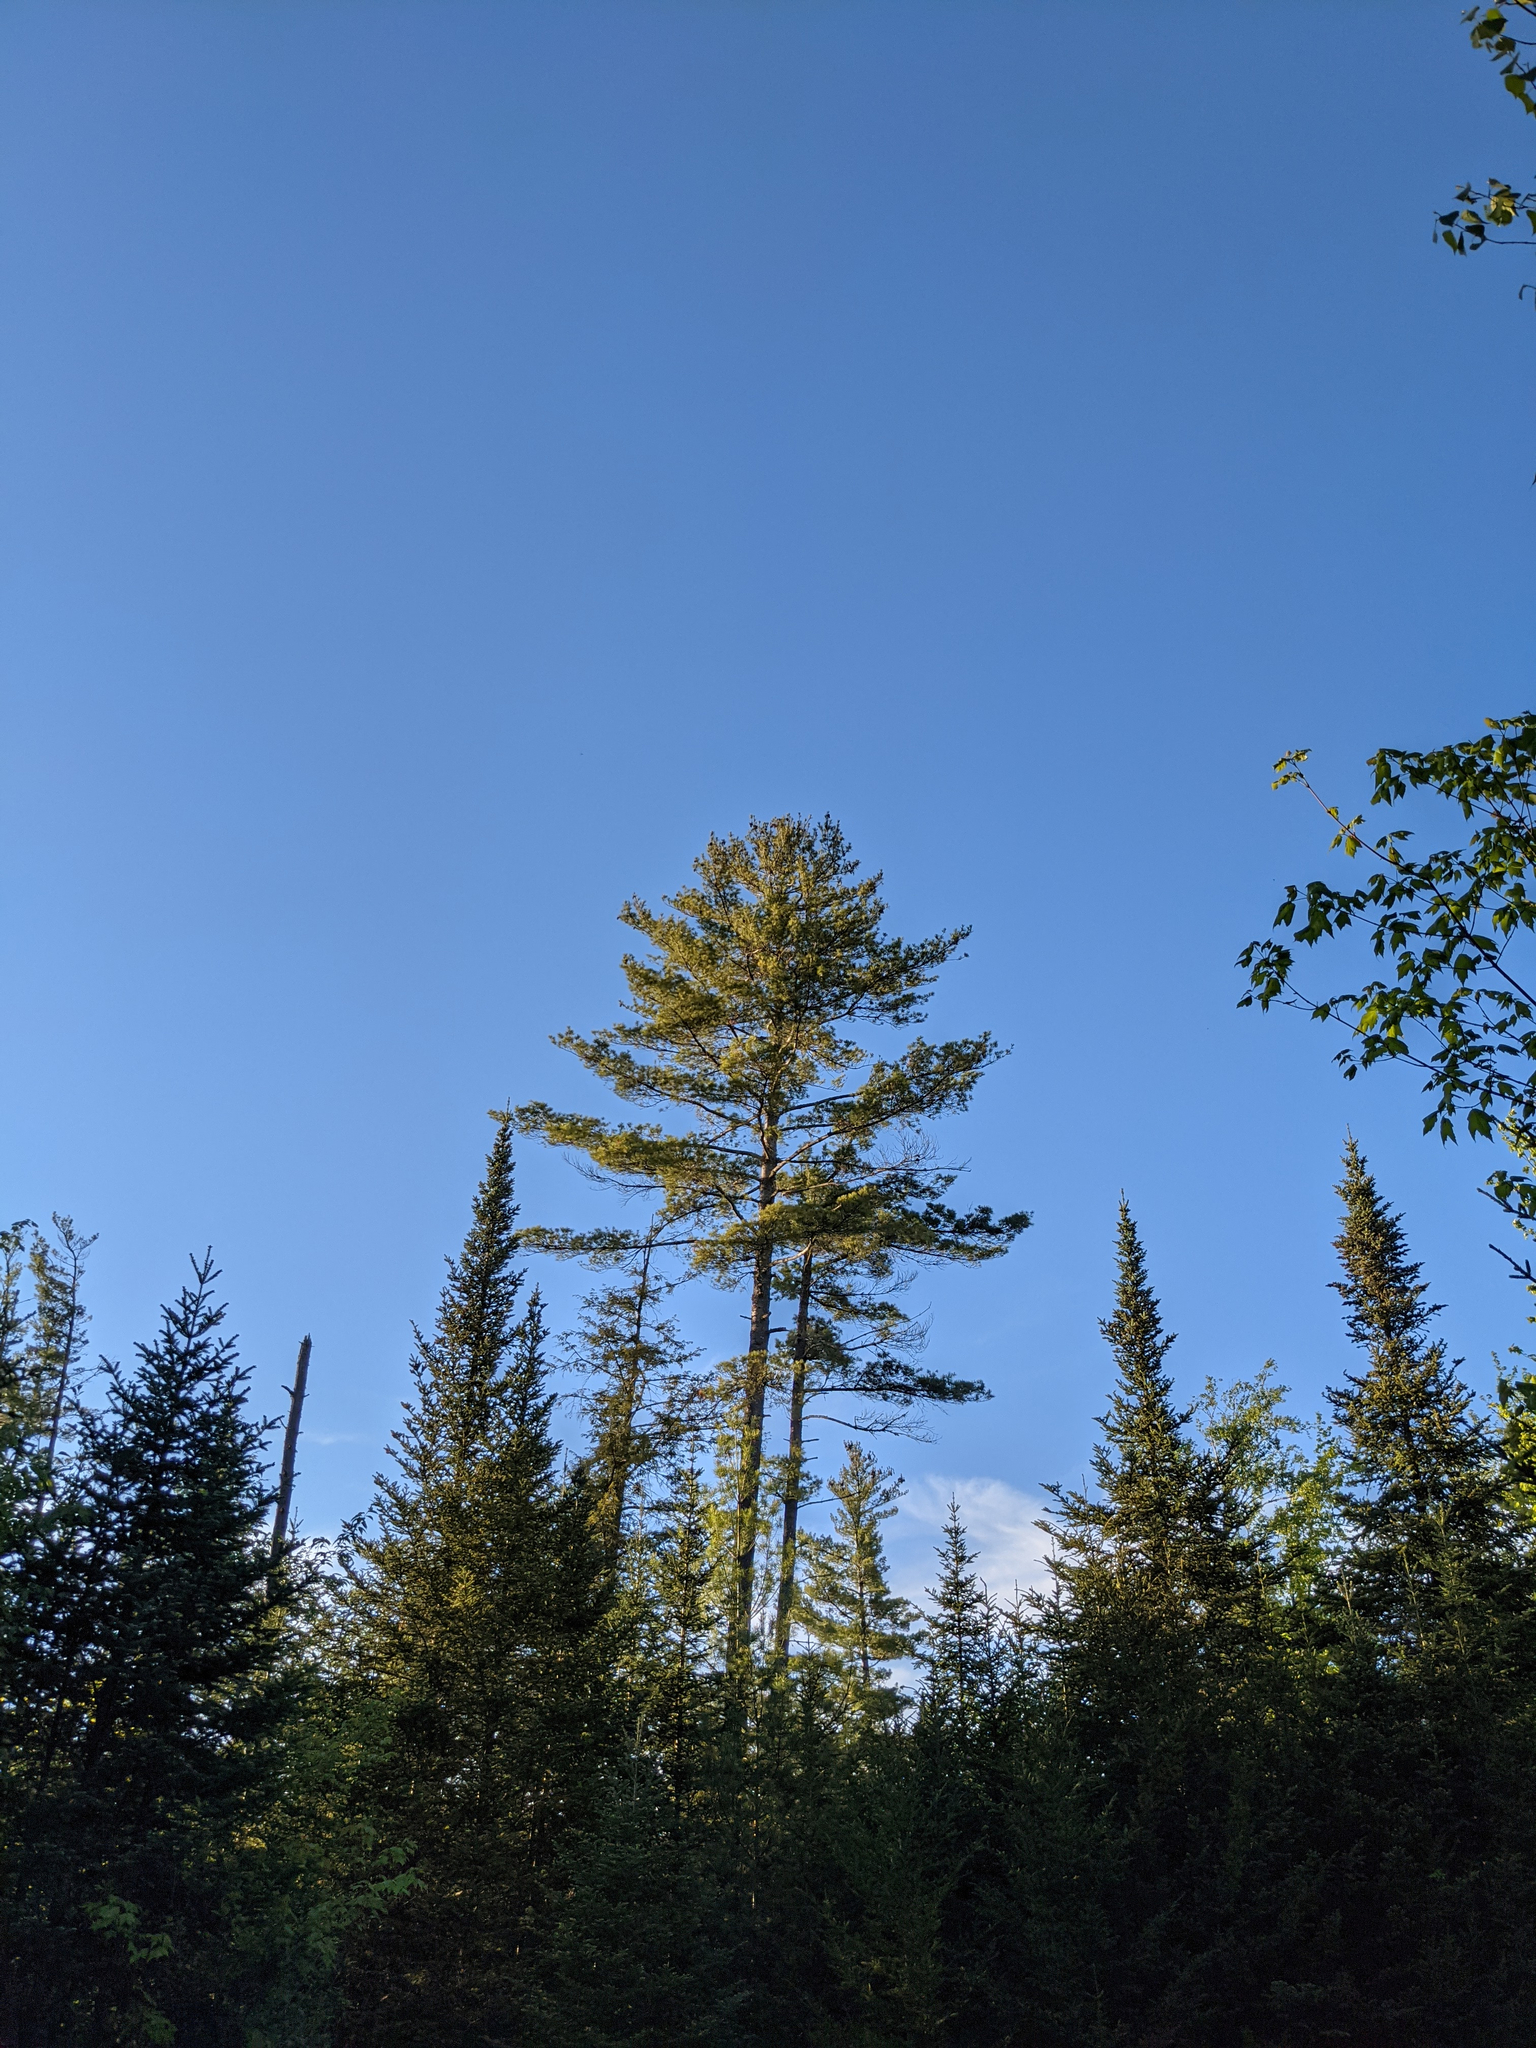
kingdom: Plantae
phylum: Tracheophyta
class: Pinopsida
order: Pinales
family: Pinaceae
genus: Pinus
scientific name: Pinus strobus
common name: Weymouth pine
